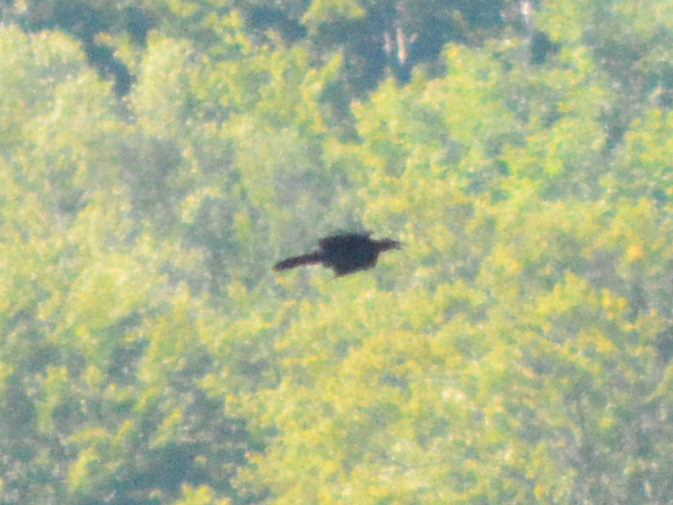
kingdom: Animalia
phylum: Chordata
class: Aves
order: Passeriformes
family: Corvidae
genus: Corvus
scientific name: Corvus corax
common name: Common raven
